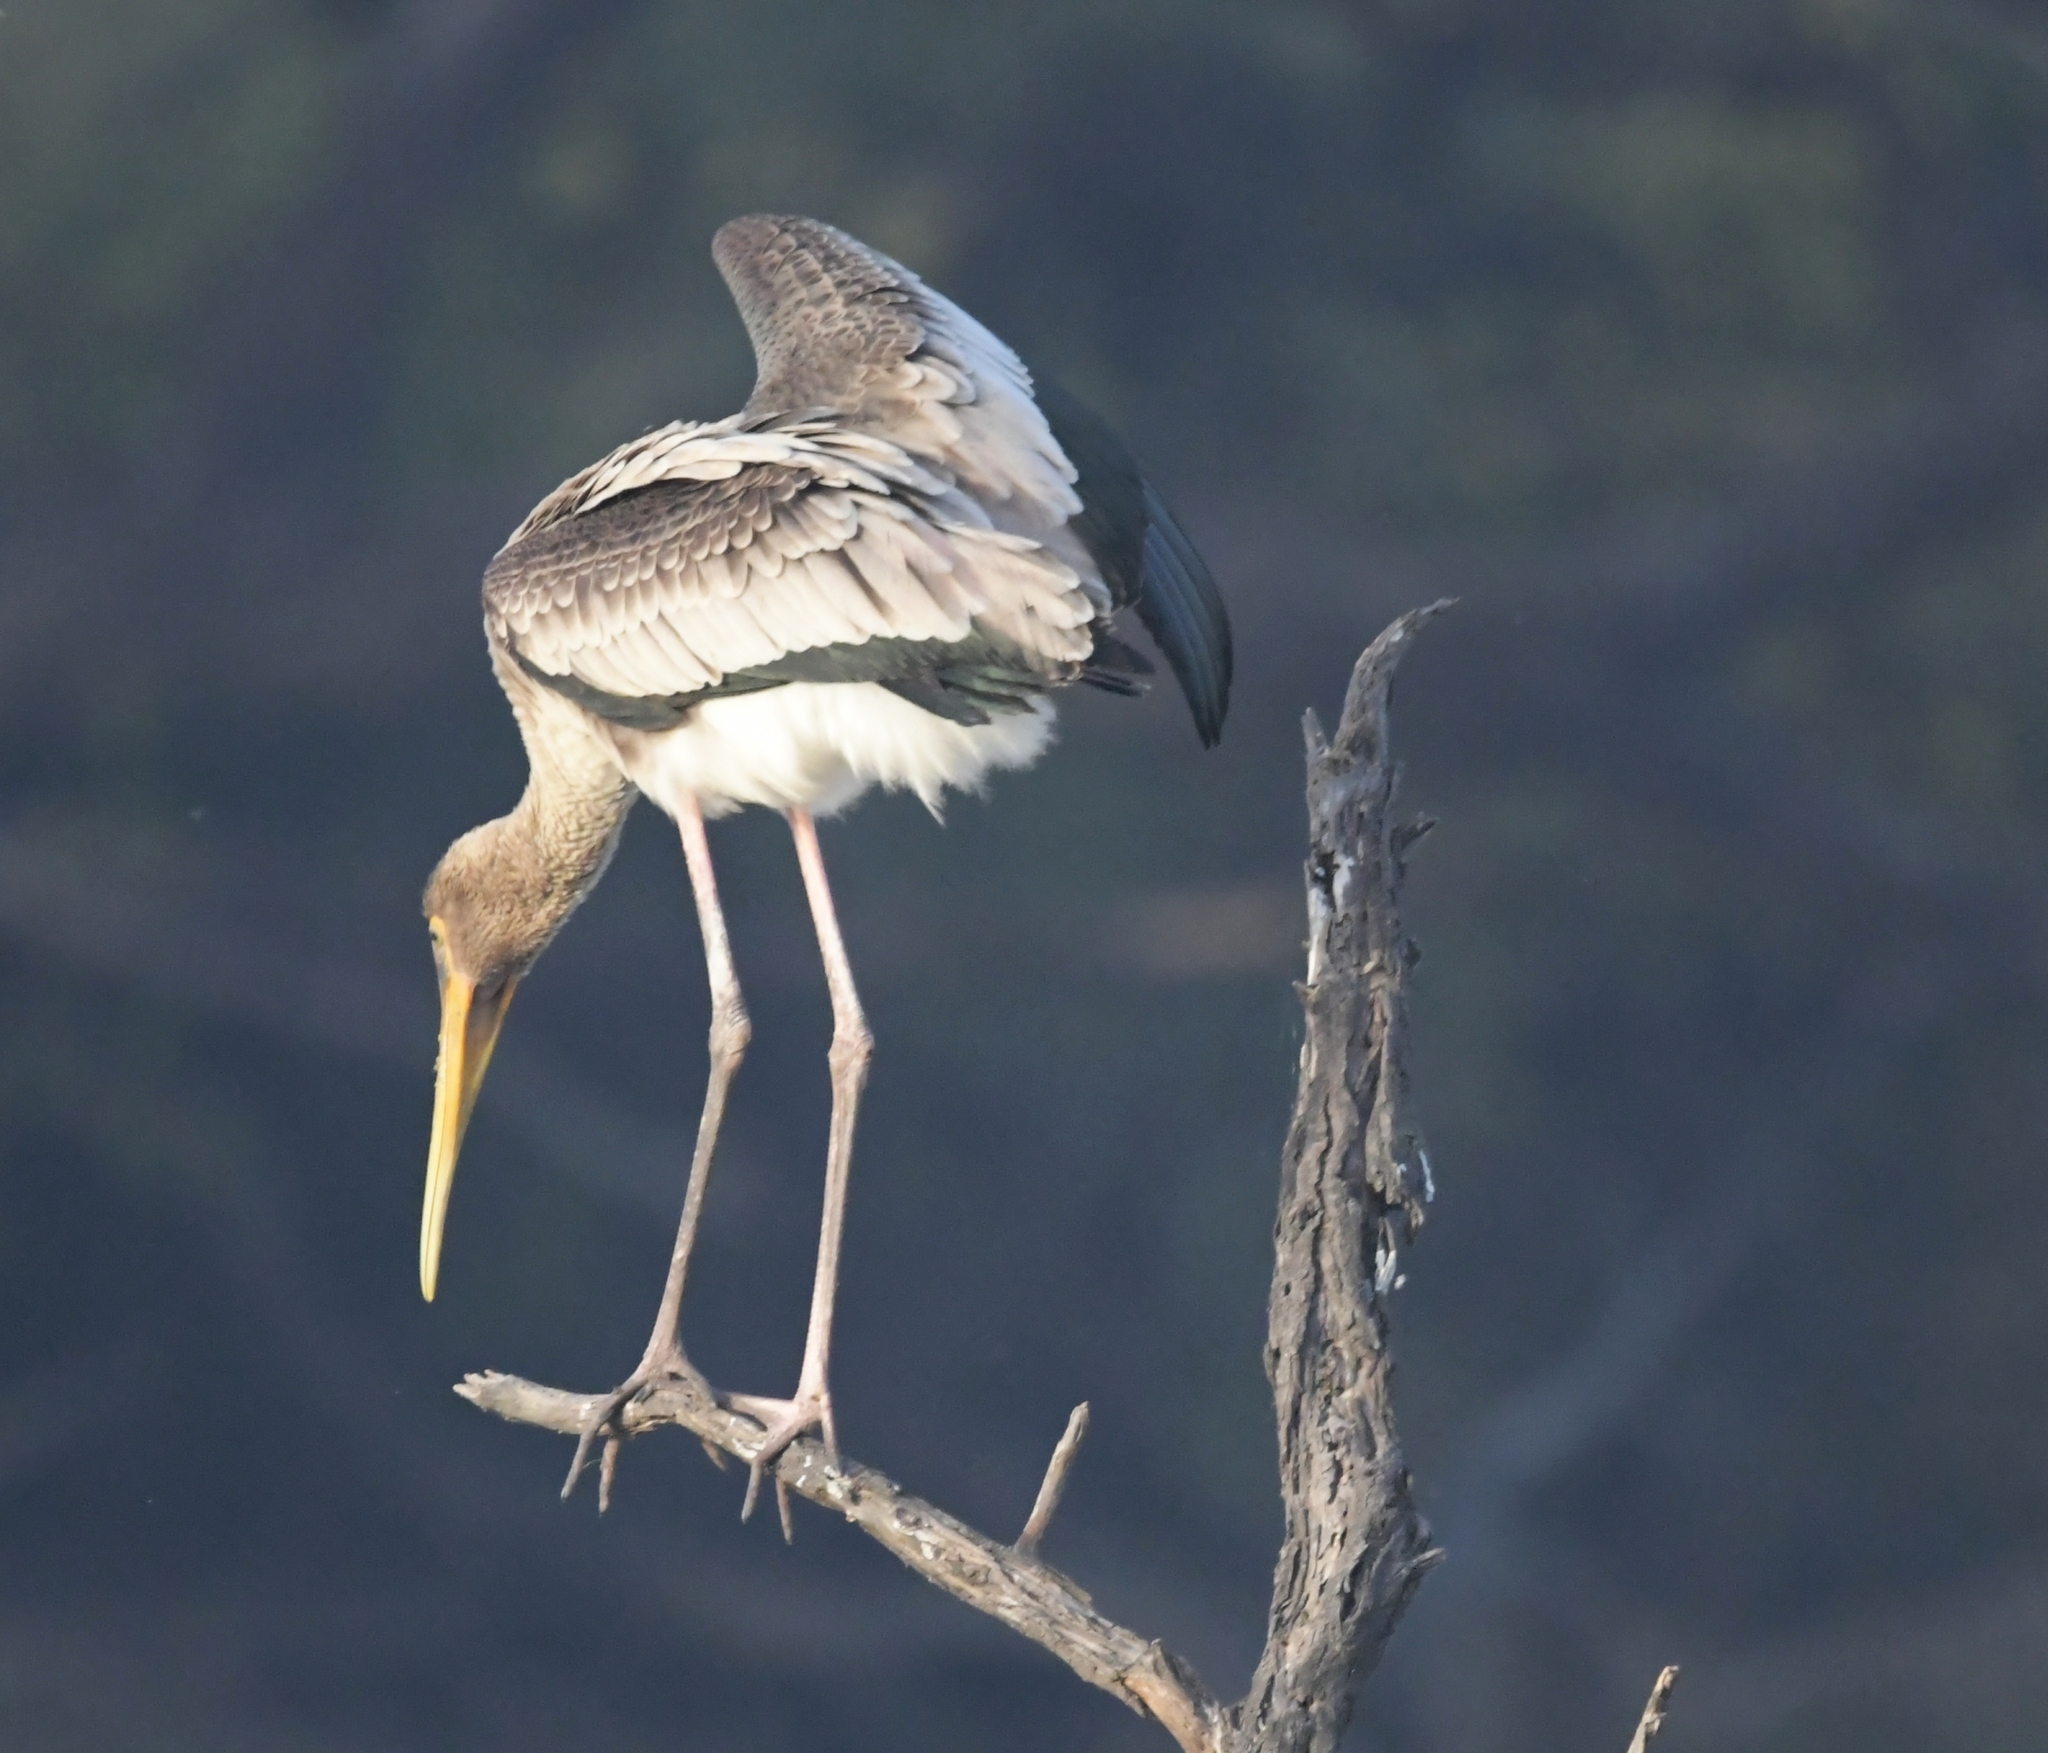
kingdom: Animalia
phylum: Chordata
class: Aves
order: Ciconiiformes
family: Ciconiidae
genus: Mycteria
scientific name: Mycteria leucocephala
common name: Painted stork
